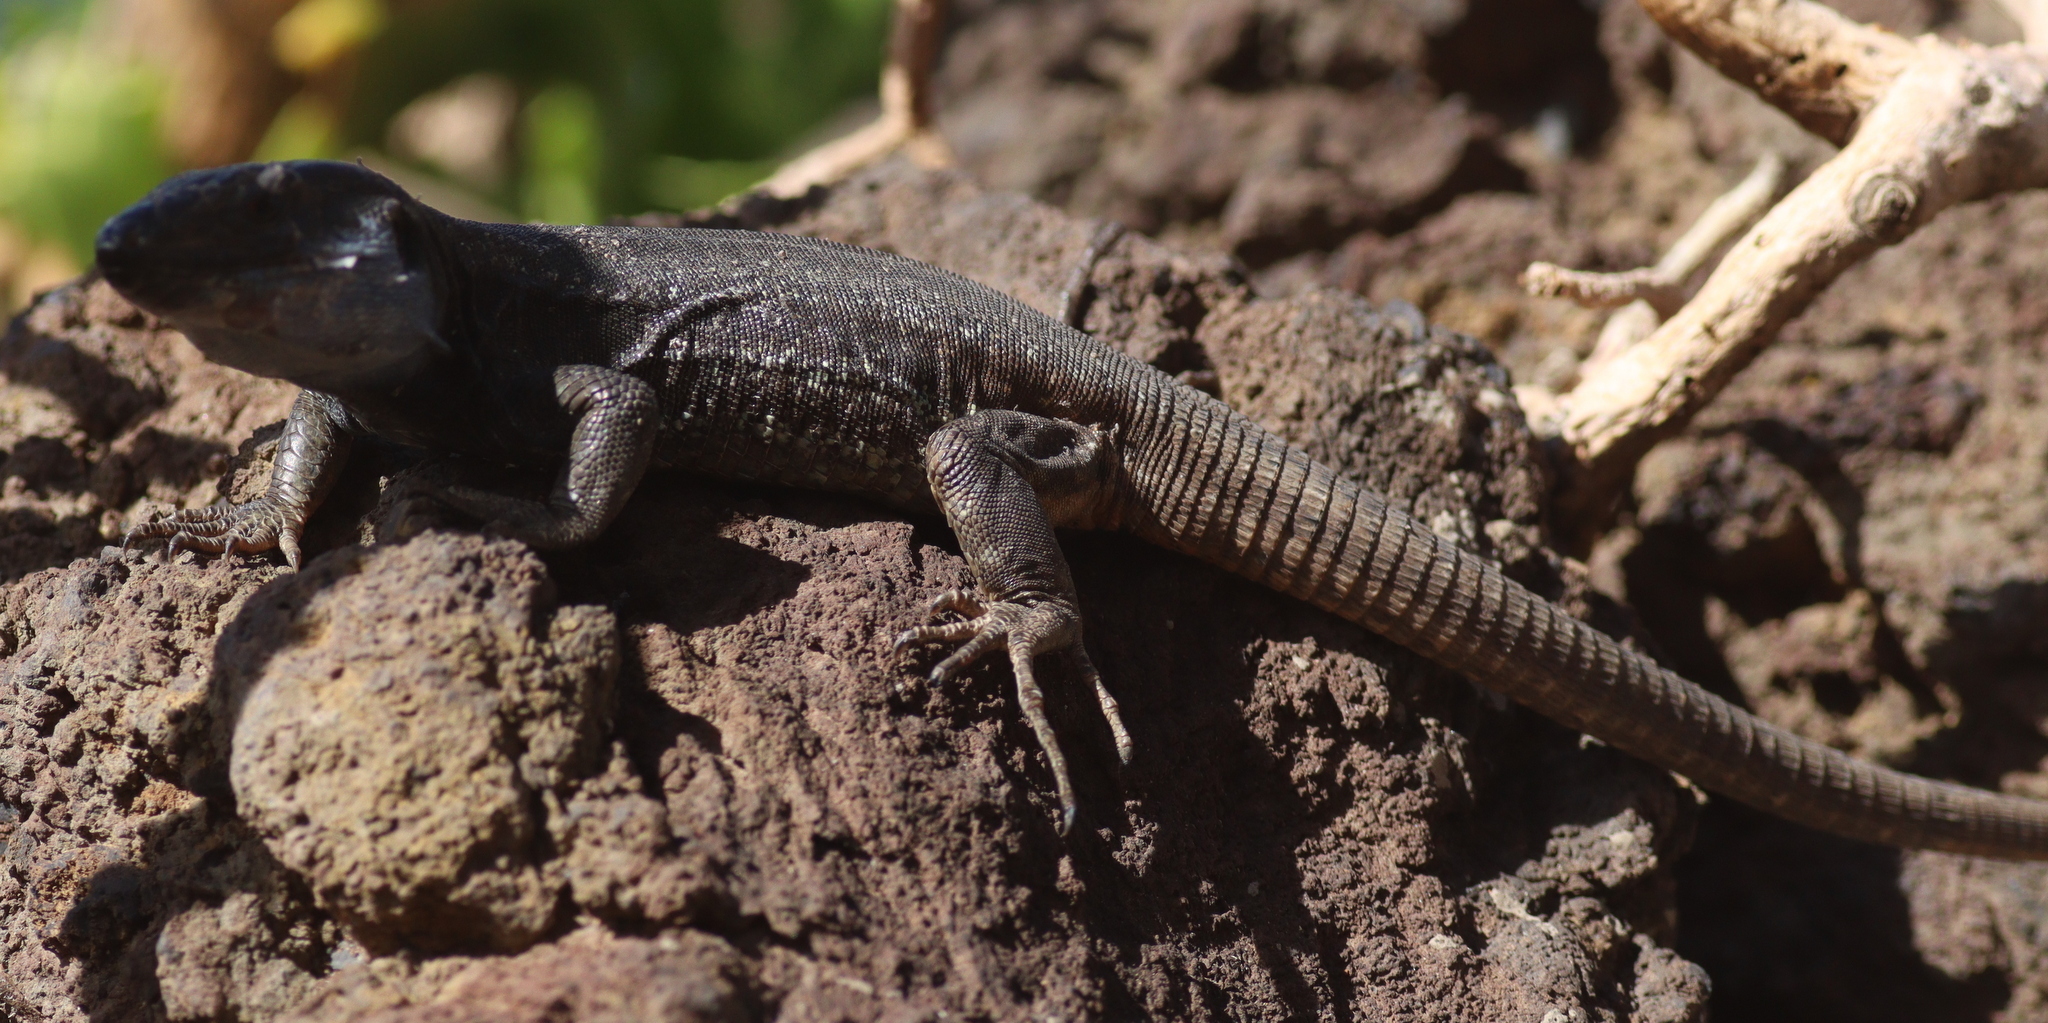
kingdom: Animalia
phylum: Chordata
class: Squamata
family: Lacertidae
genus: Gallotia
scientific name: Gallotia galloti
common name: Gallot's lizard
